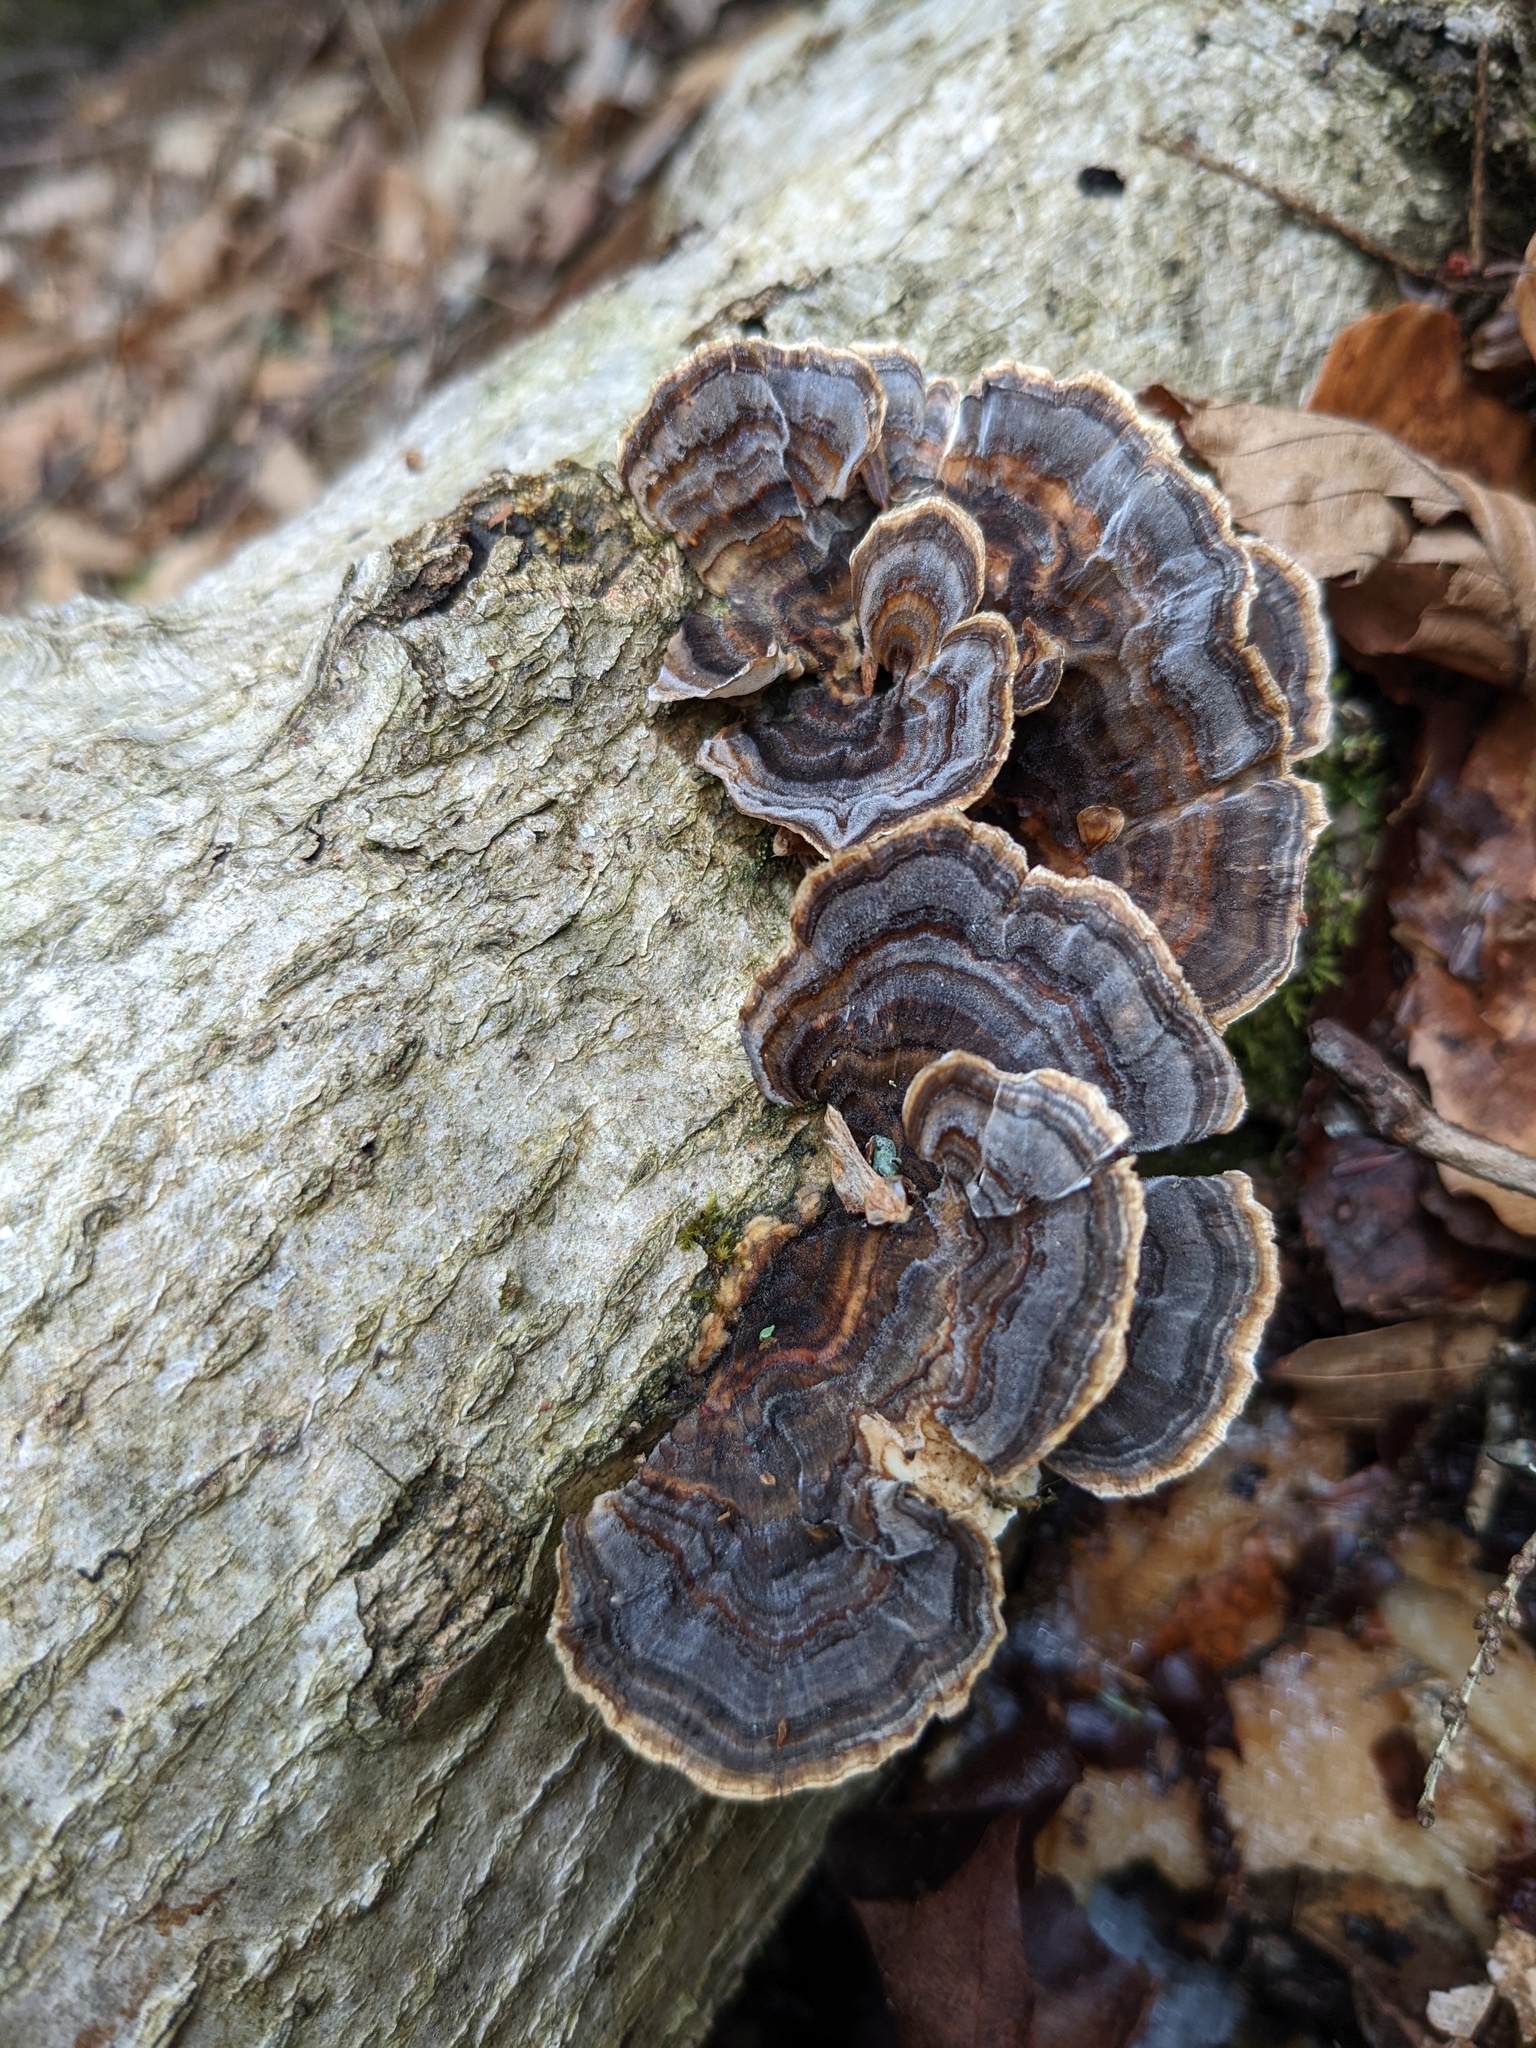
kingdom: Fungi
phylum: Basidiomycota
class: Agaricomycetes
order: Polyporales
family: Polyporaceae
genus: Trametes
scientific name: Trametes versicolor
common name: Turkeytail
